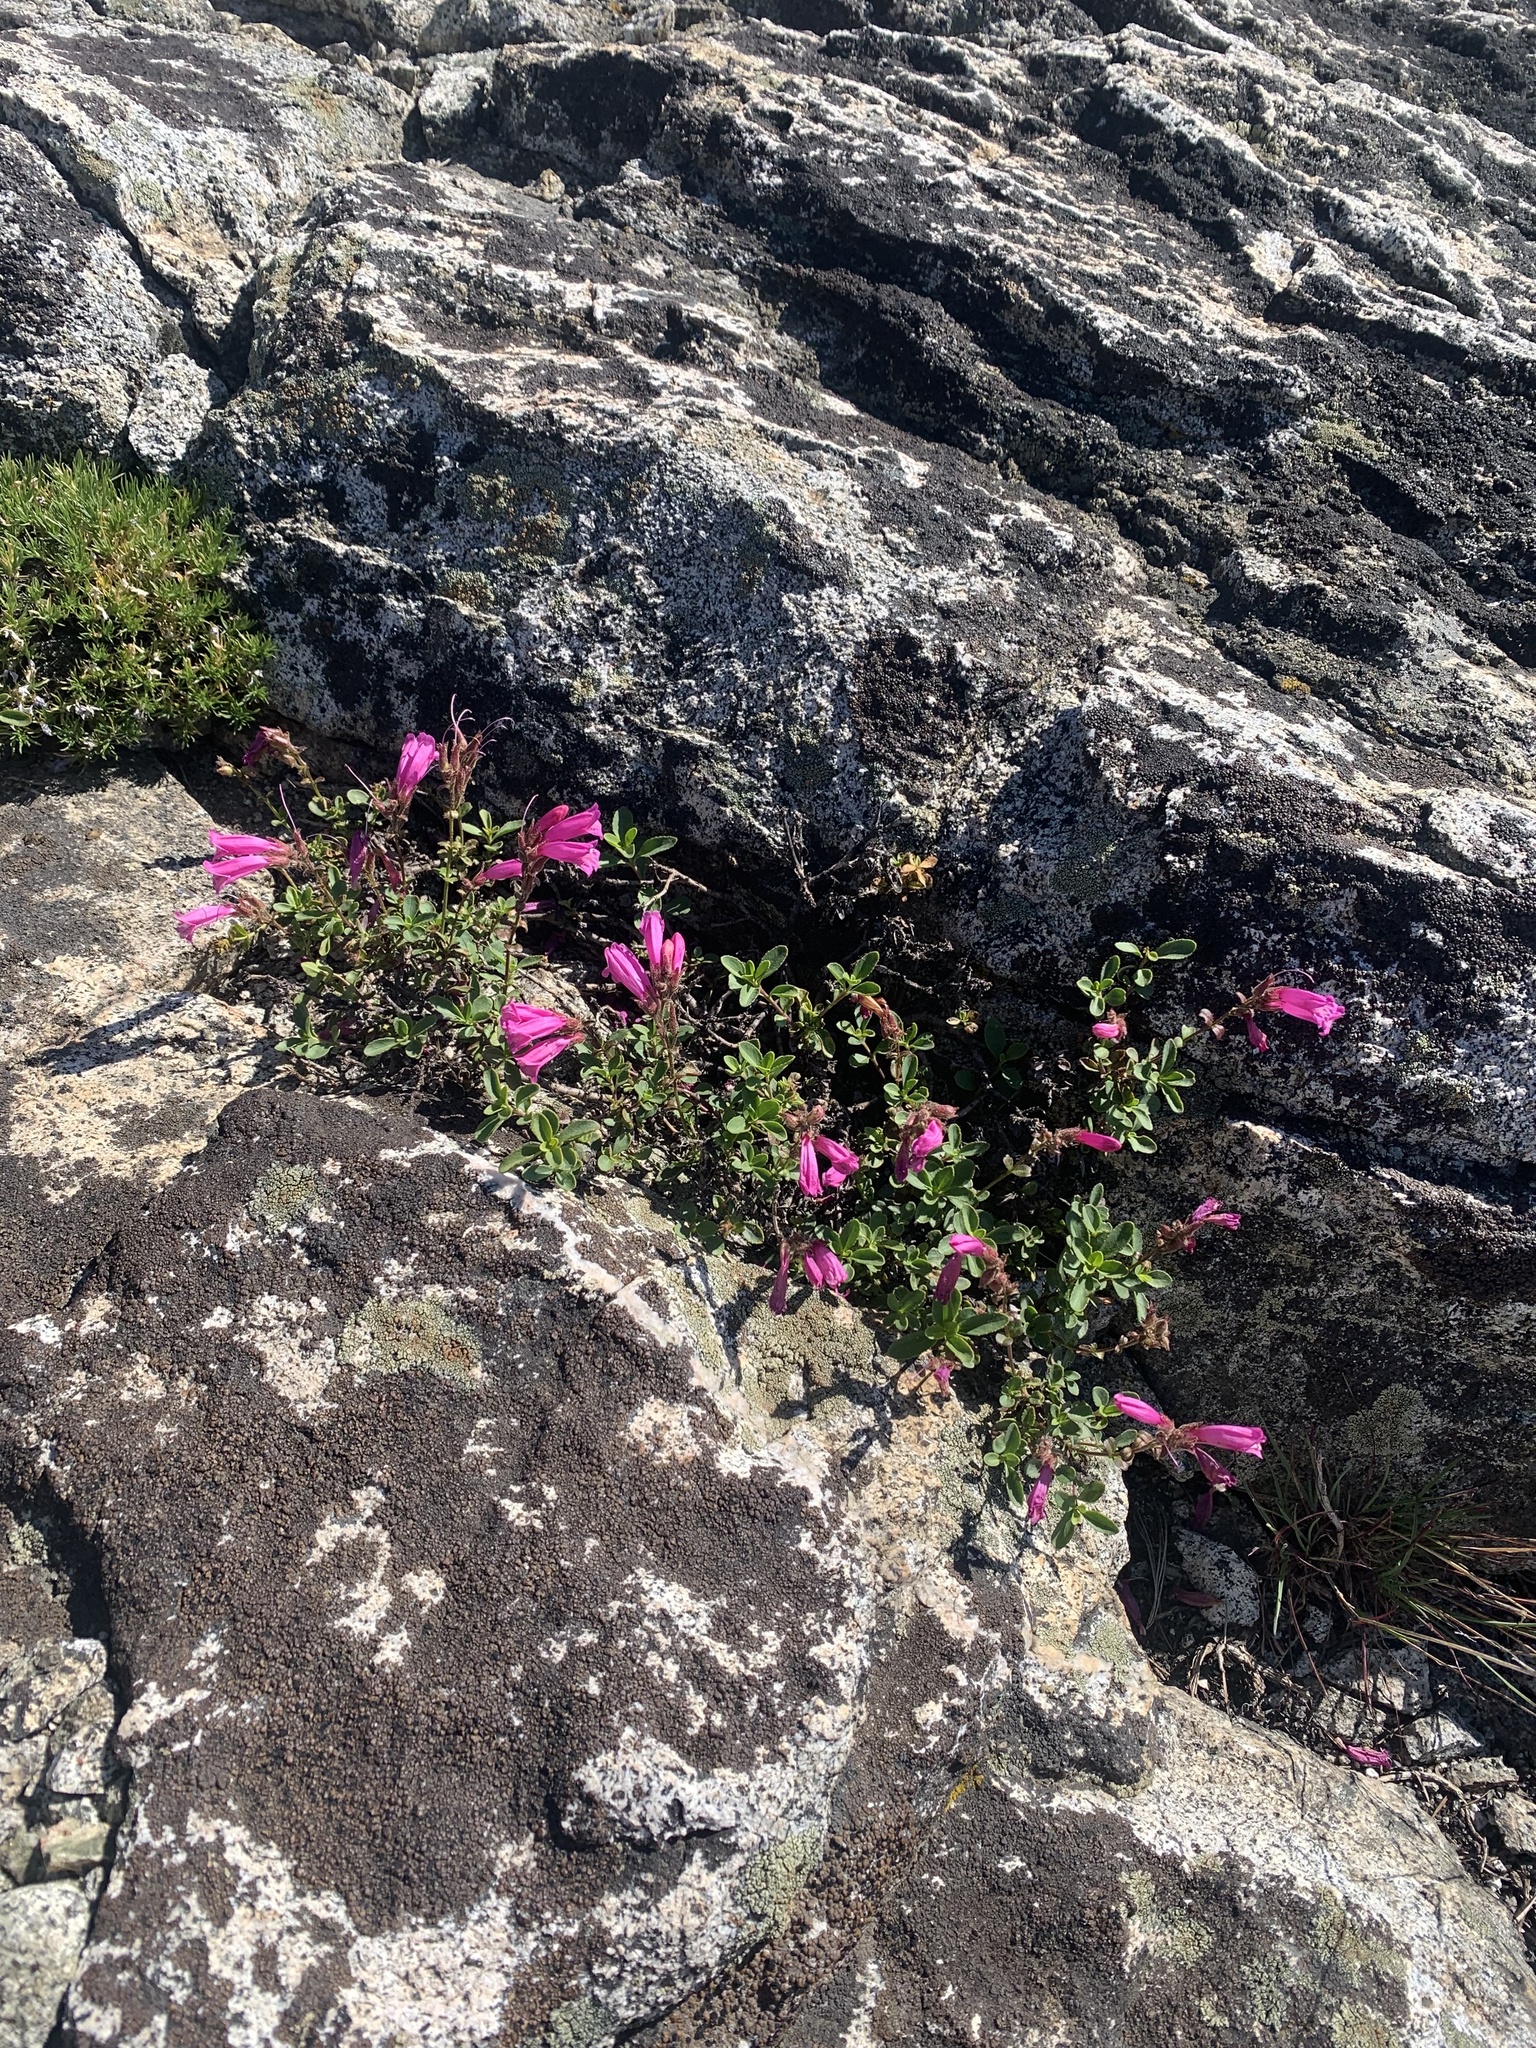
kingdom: Plantae
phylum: Tracheophyta
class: Magnoliopsida
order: Lamiales
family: Plantaginaceae
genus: Penstemon
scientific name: Penstemon newberryi
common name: Mountain-pride
